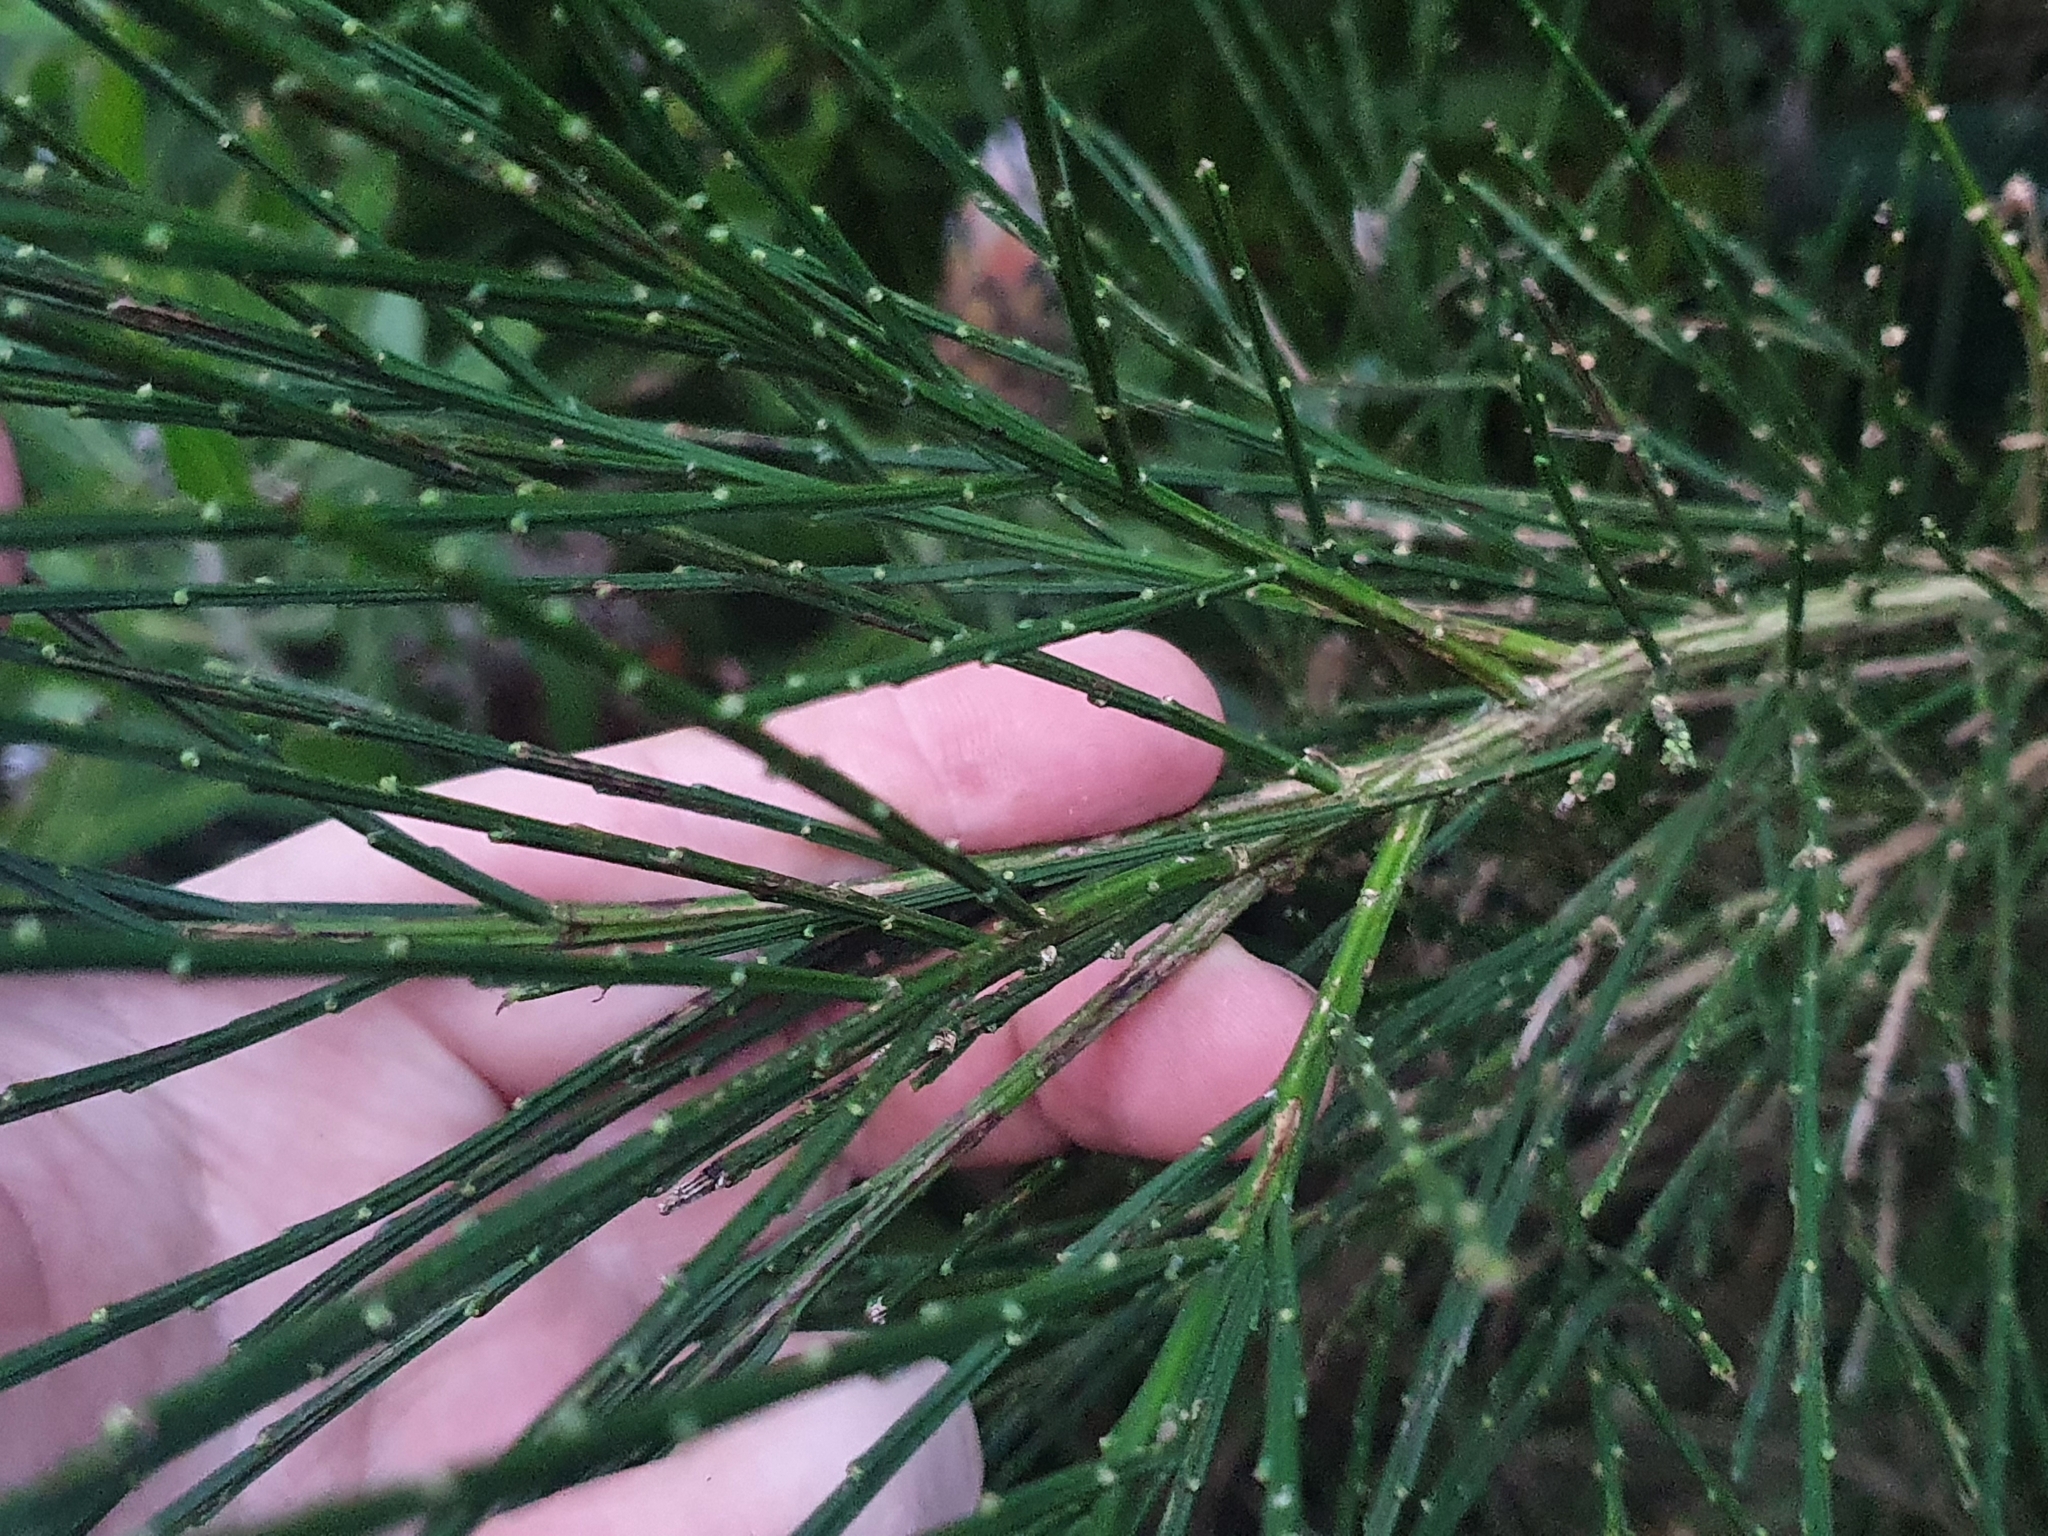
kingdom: Plantae
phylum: Tracheophyta
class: Magnoliopsida
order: Fabales
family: Fabaceae
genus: Cytisus
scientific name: Cytisus scoparius
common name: Scotch broom
